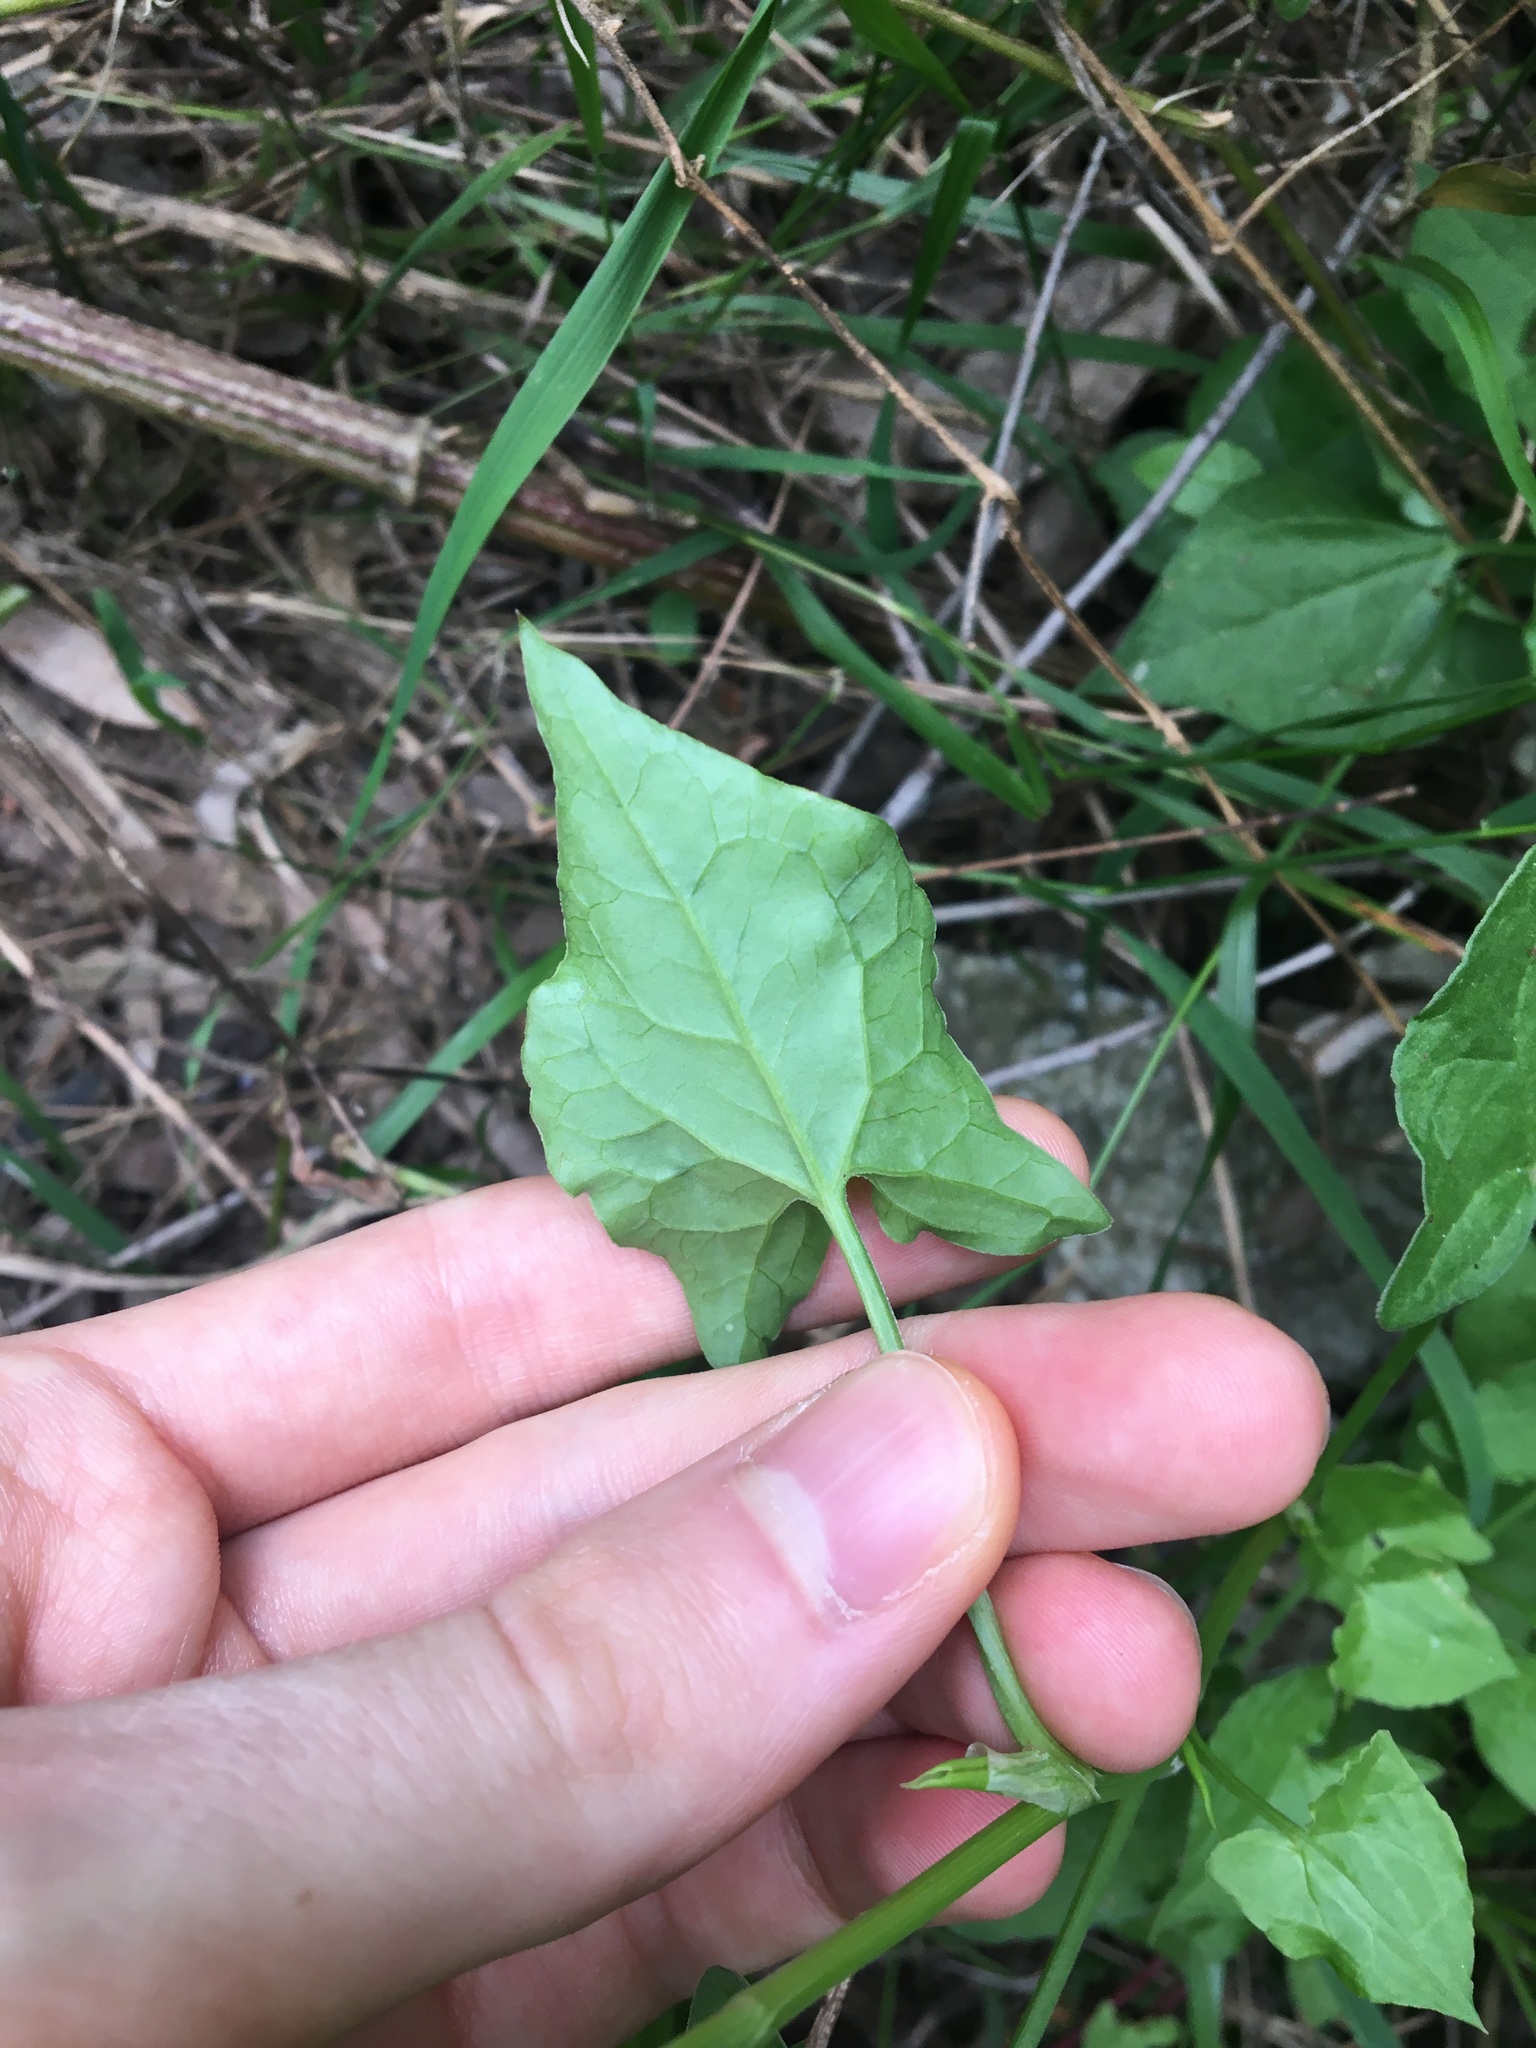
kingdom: Plantae
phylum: Tracheophyta
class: Magnoliopsida
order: Caryophyllales
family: Polygonaceae
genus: Rumex
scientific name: Rumex sagittatus
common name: Climbing dock
